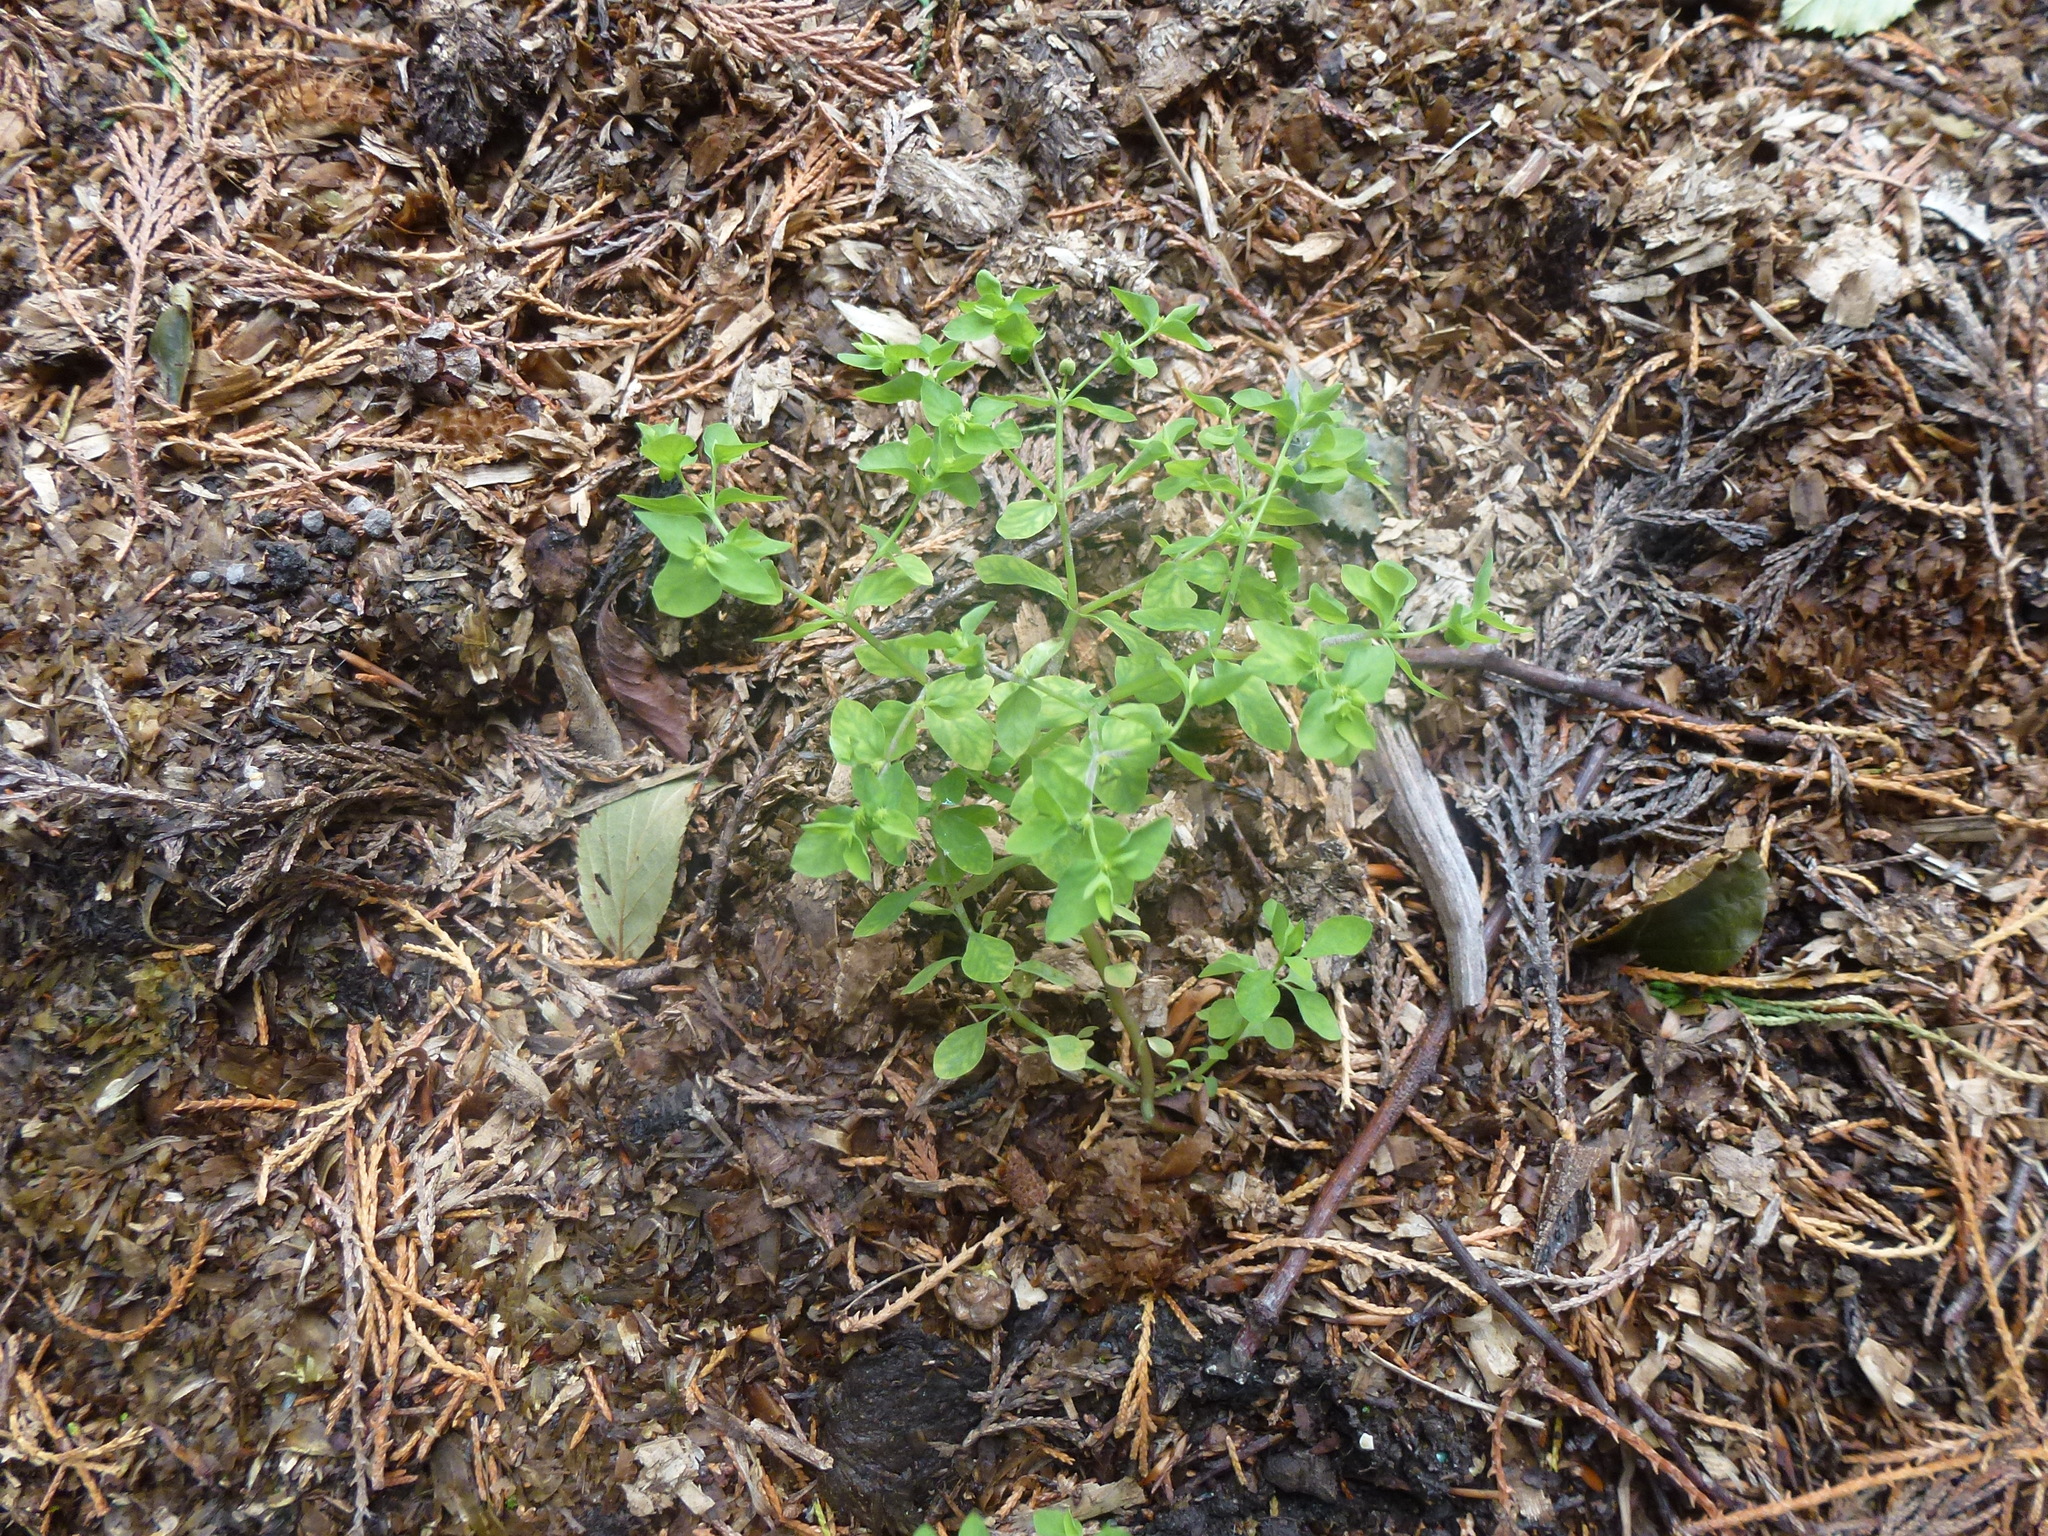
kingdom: Plantae
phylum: Tracheophyta
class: Magnoliopsida
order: Malpighiales
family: Euphorbiaceae
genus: Euphorbia
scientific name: Euphorbia peplus
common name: Petty spurge
